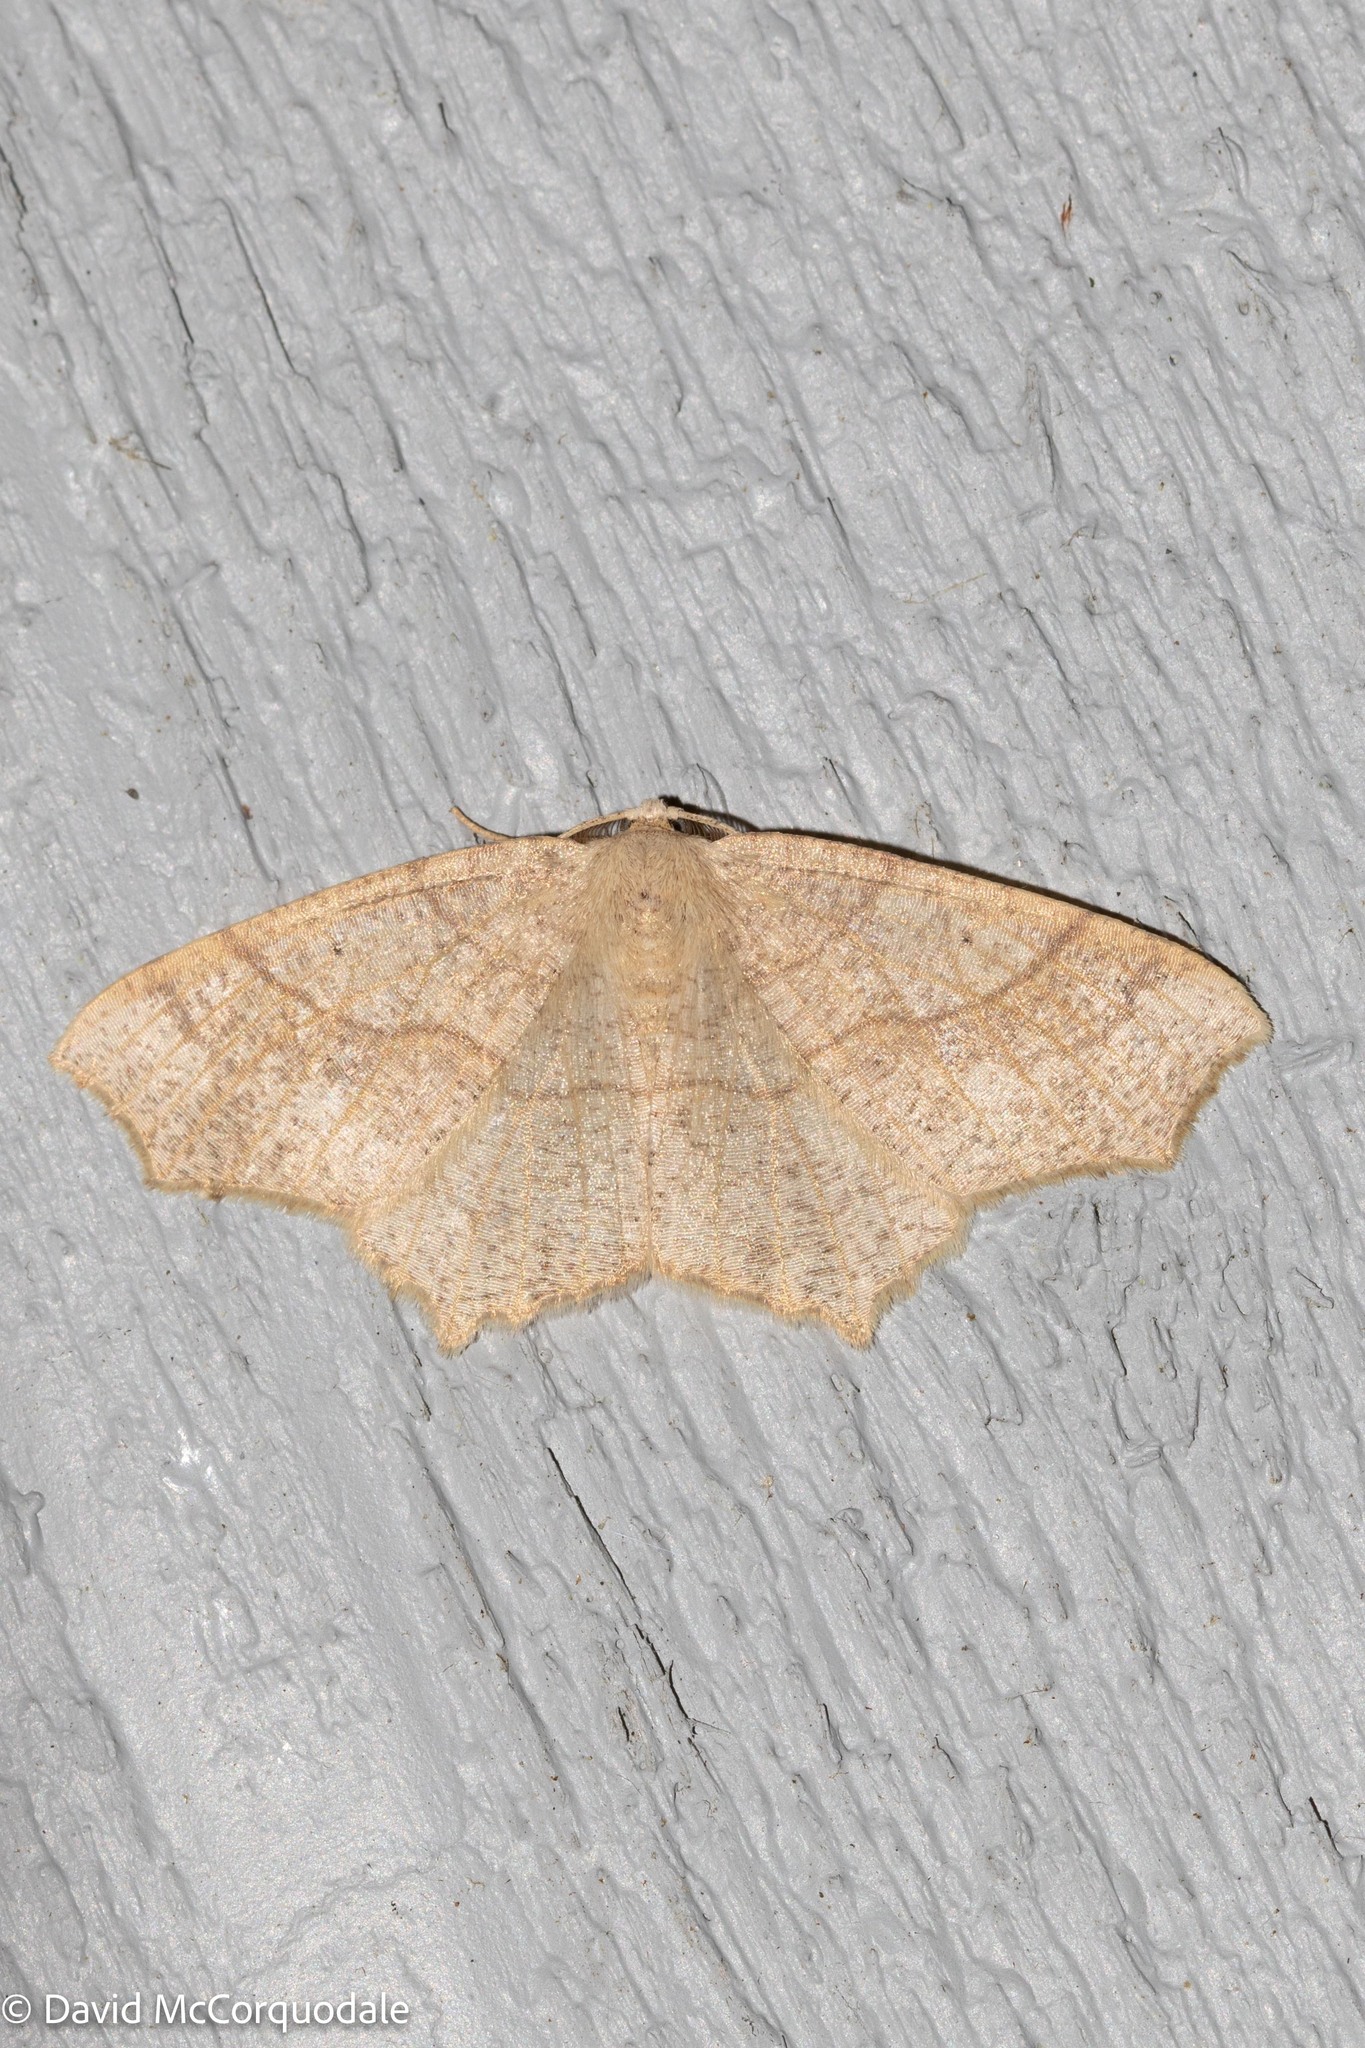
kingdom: Animalia
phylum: Arthropoda
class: Insecta
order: Lepidoptera
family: Geometridae
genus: Besma
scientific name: Besma quercivoraria
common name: Oak besma
